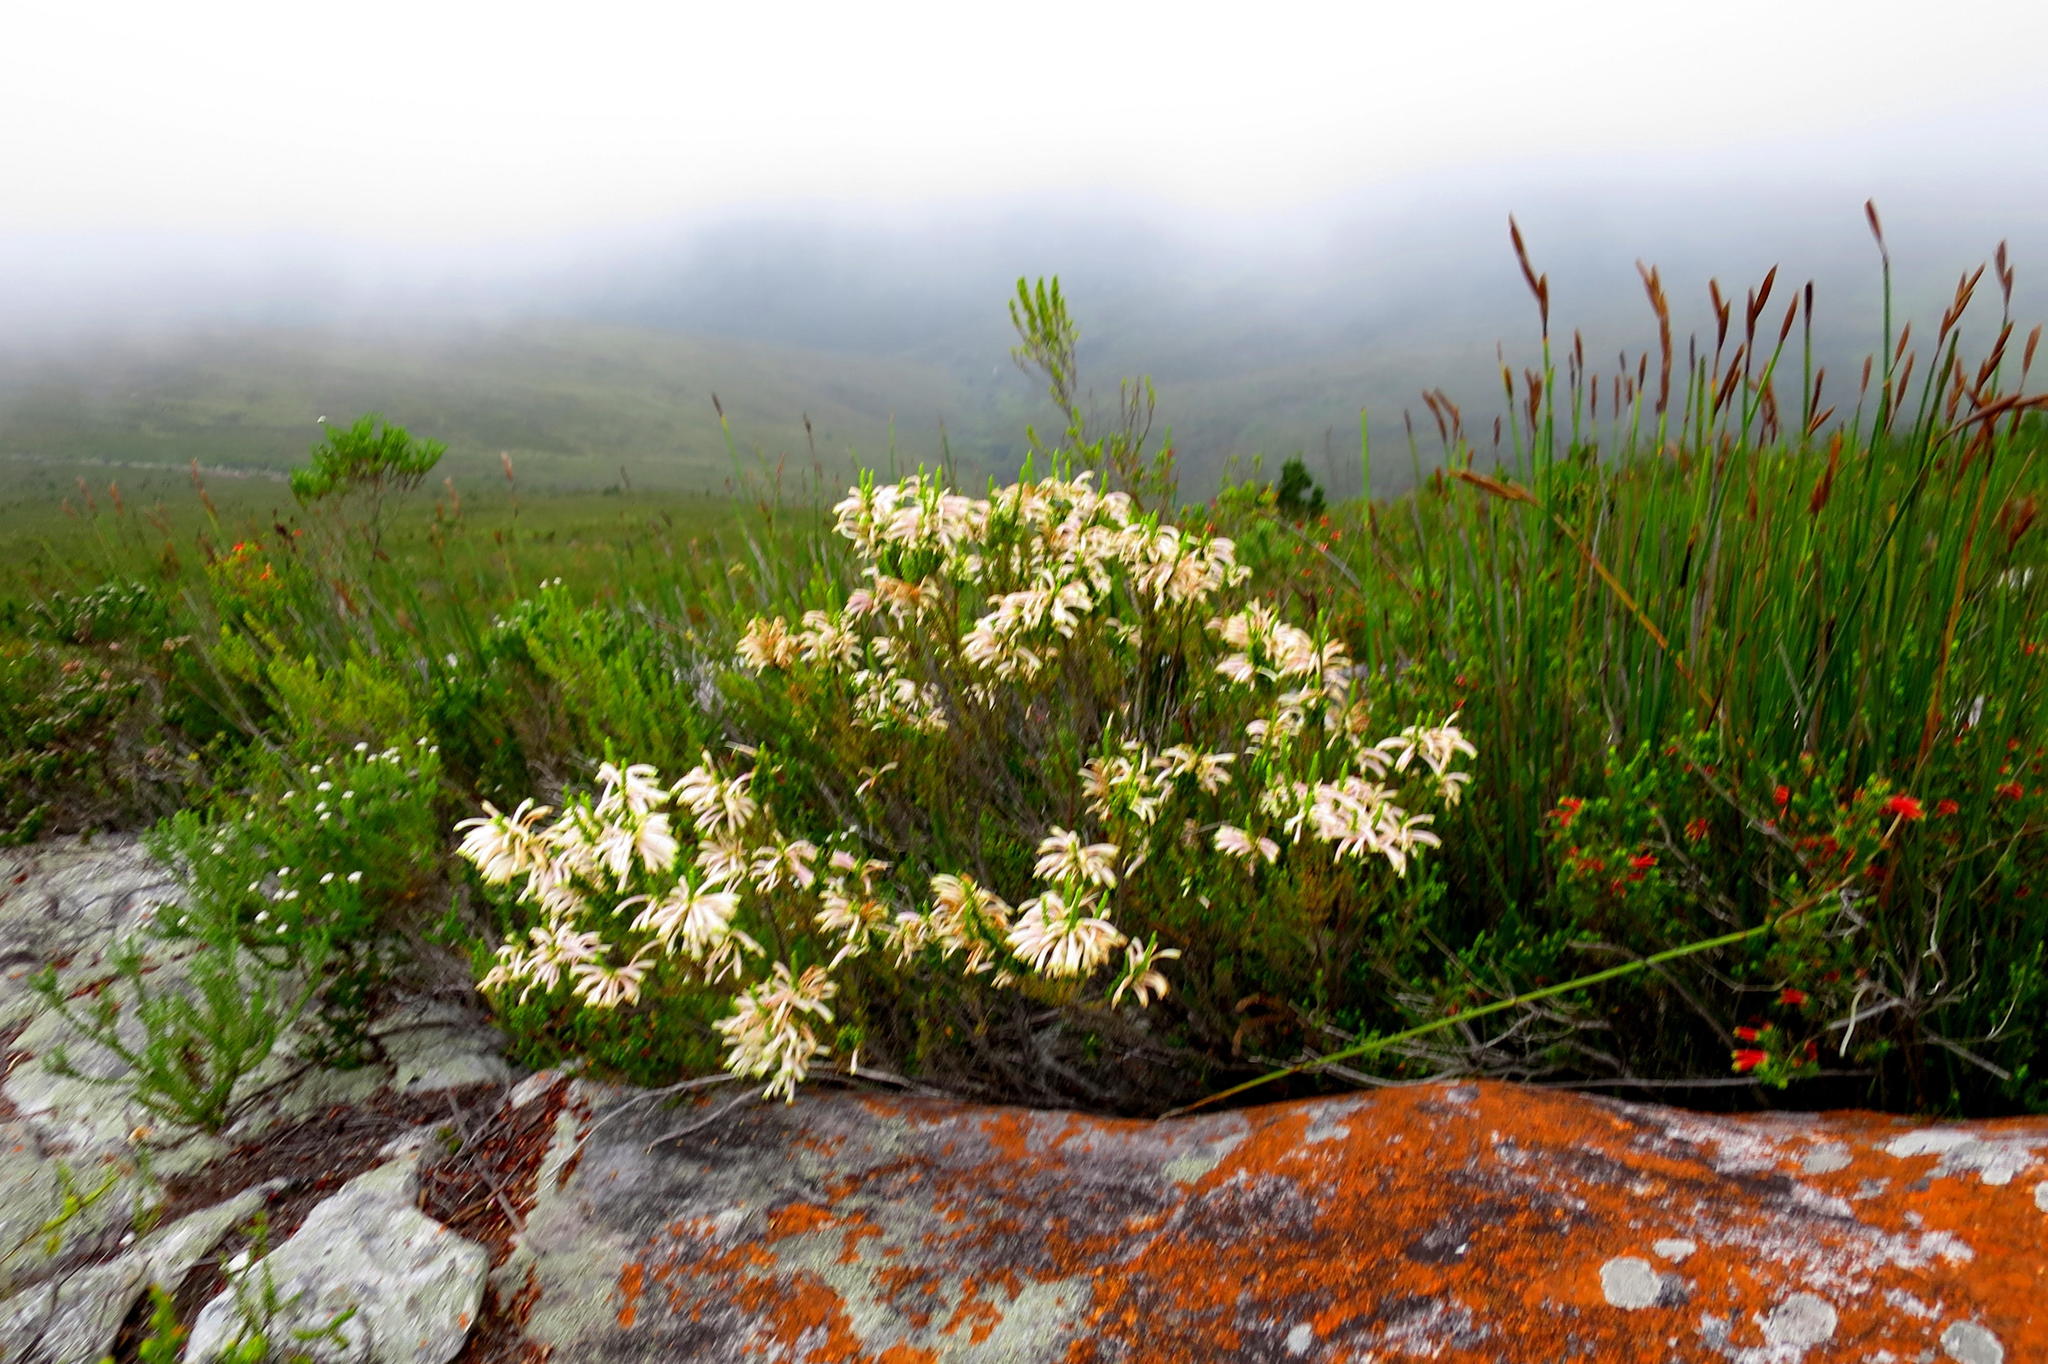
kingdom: Plantae
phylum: Tracheophyta
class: Magnoliopsida
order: Ericales
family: Ericaceae
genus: Erica
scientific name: Erica densifolia
